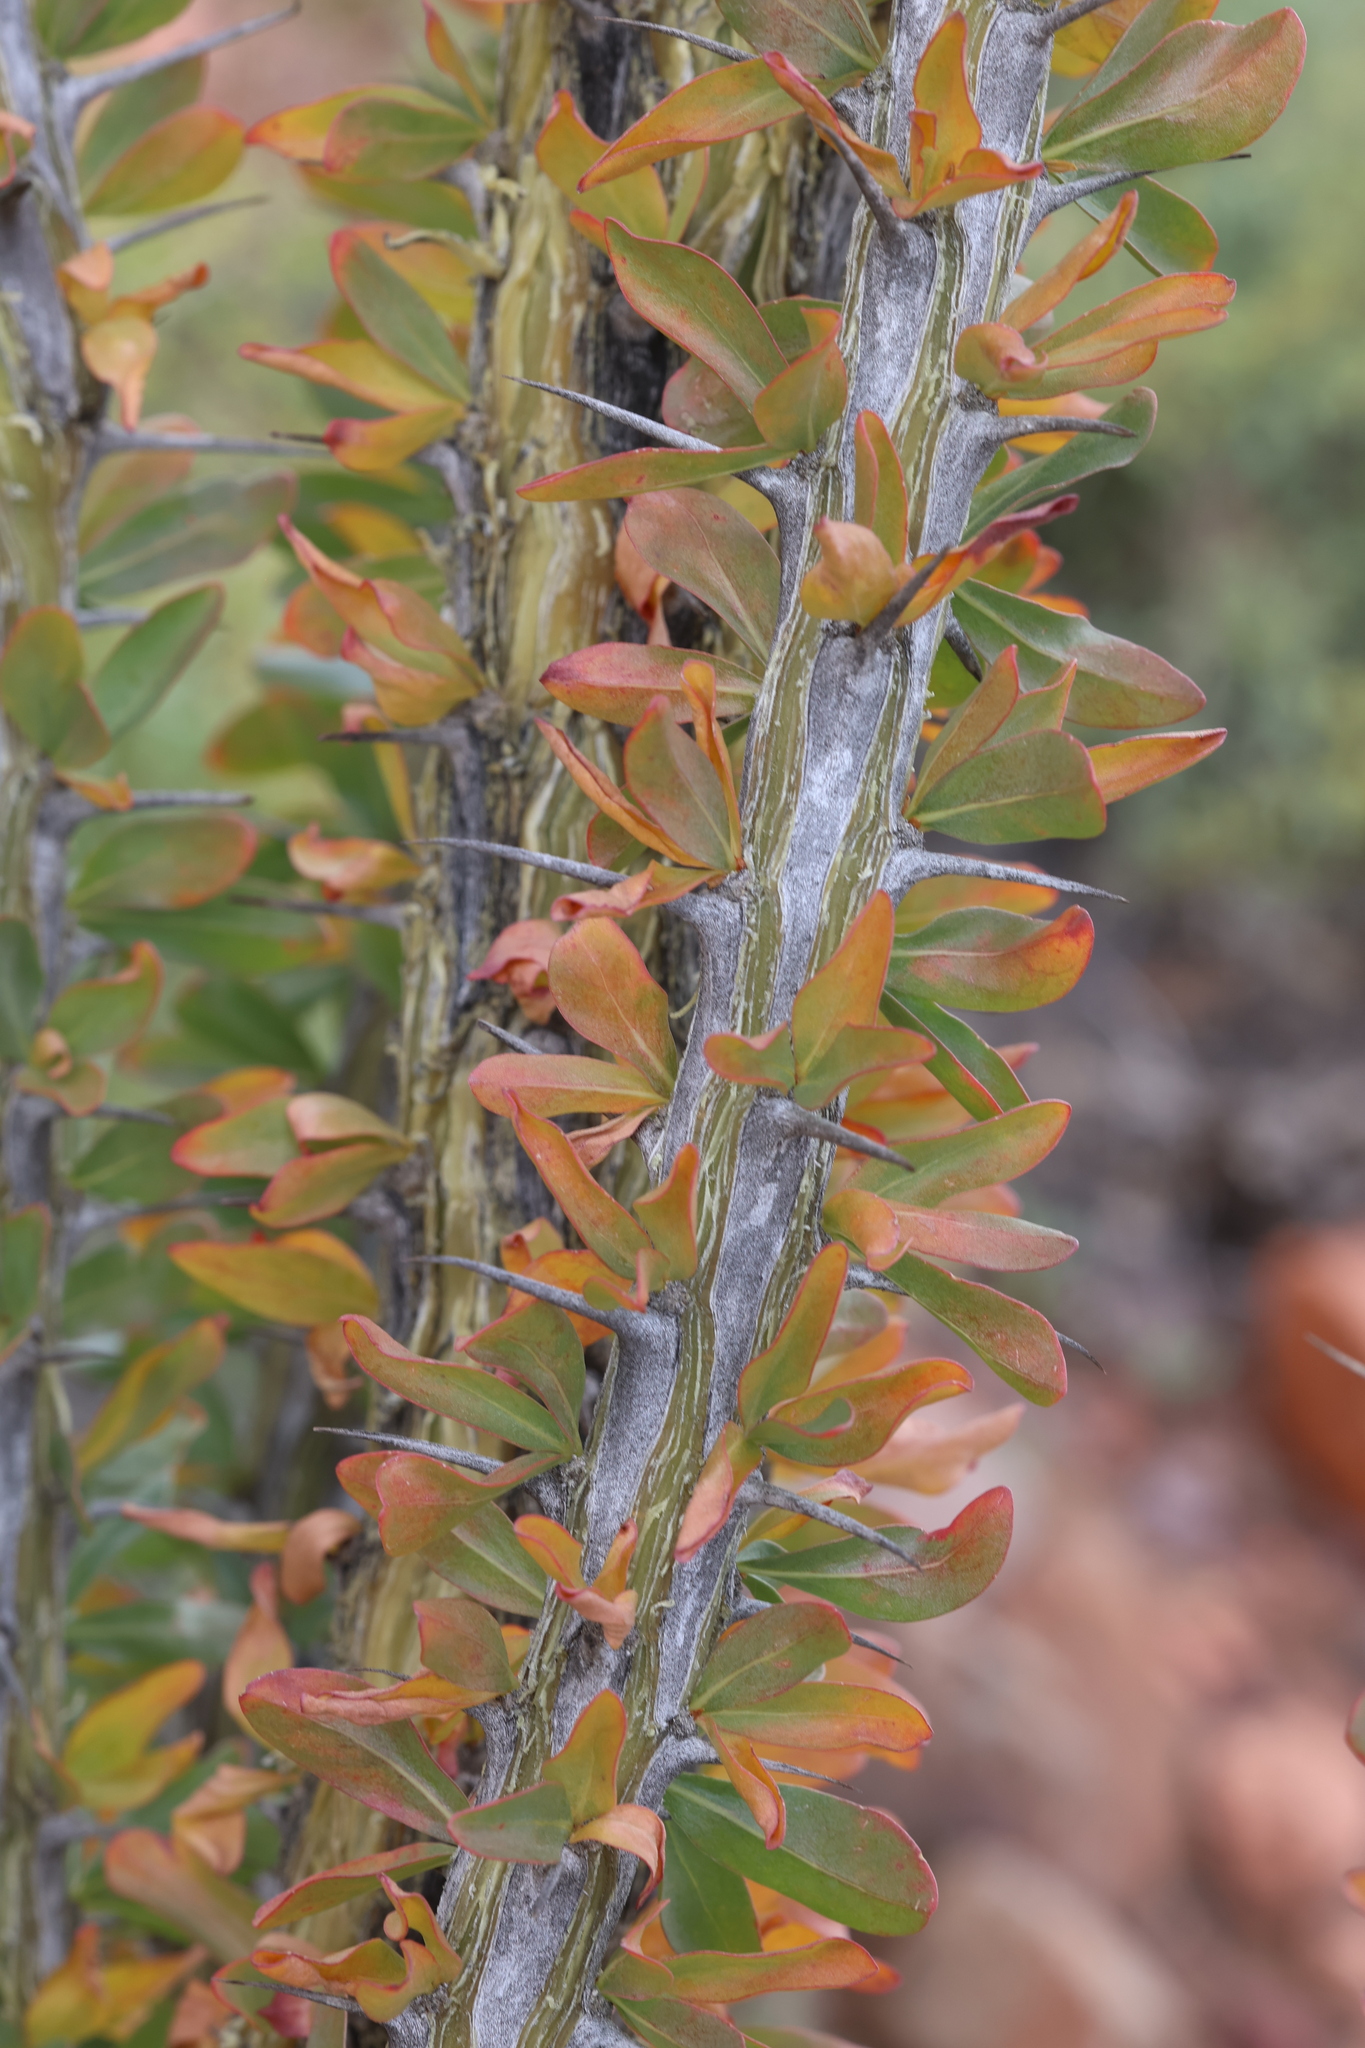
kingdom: Plantae
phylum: Tracheophyta
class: Magnoliopsida
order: Ericales
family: Fouquieriaceae
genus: Fouquieria
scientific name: Fouquieria splendens
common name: Vine-cactus
